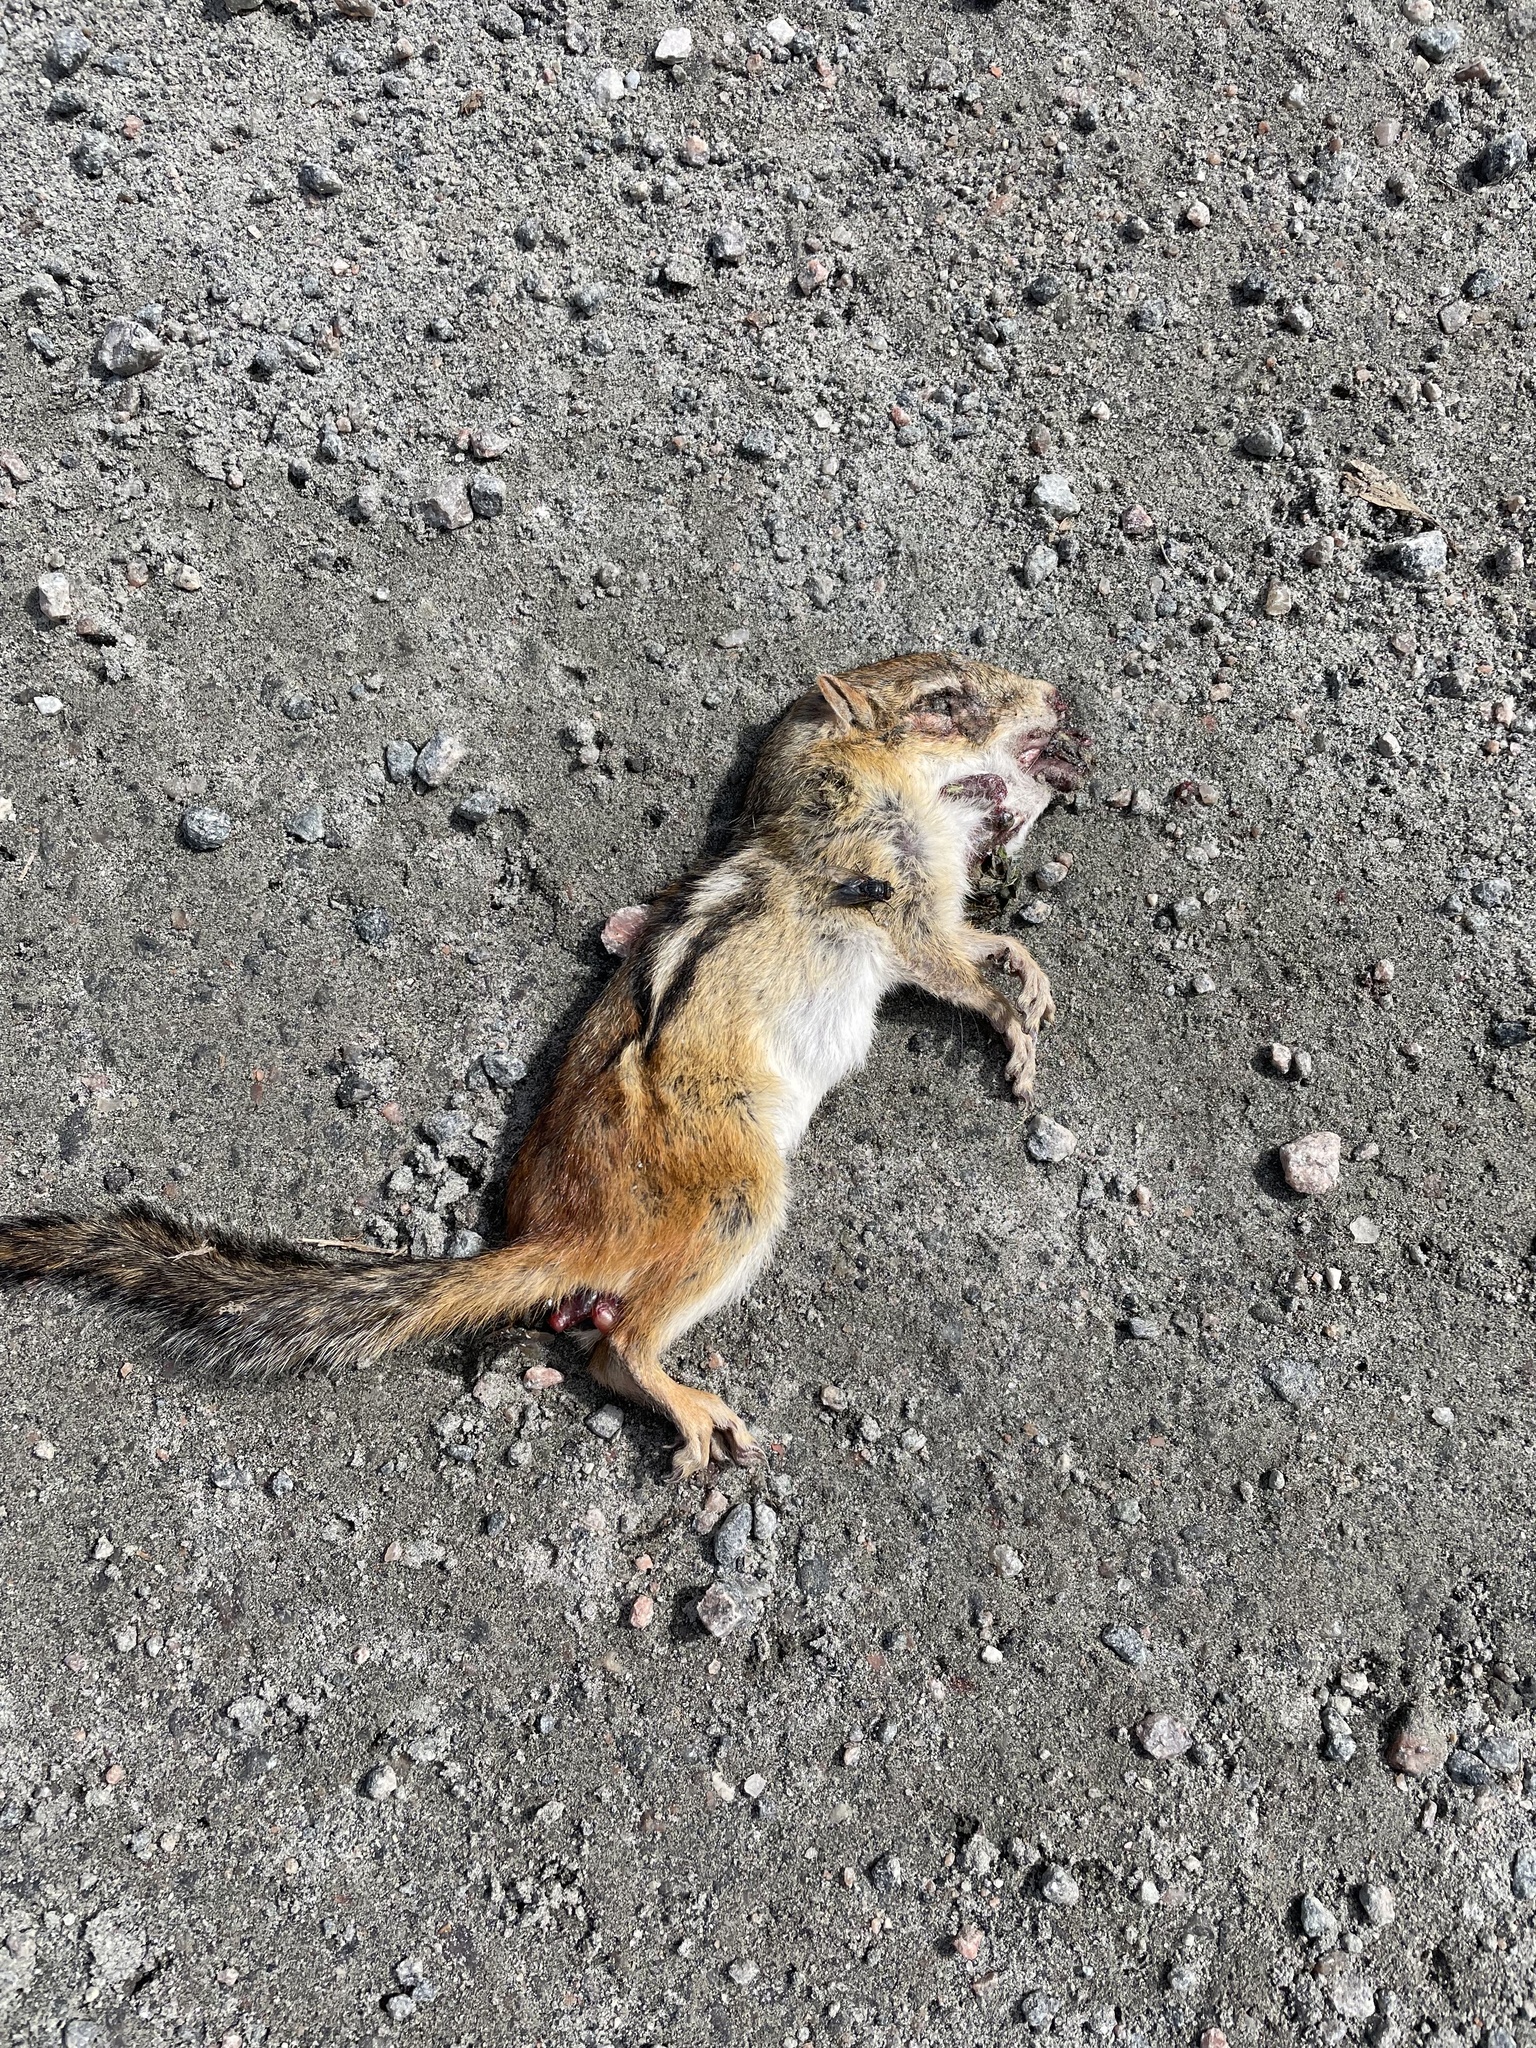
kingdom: Animalia
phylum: Chordata
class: Mammalia
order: Rodentia
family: Sciuridae
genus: Tamias
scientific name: Tamias striatus
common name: Eastern chipmunk
